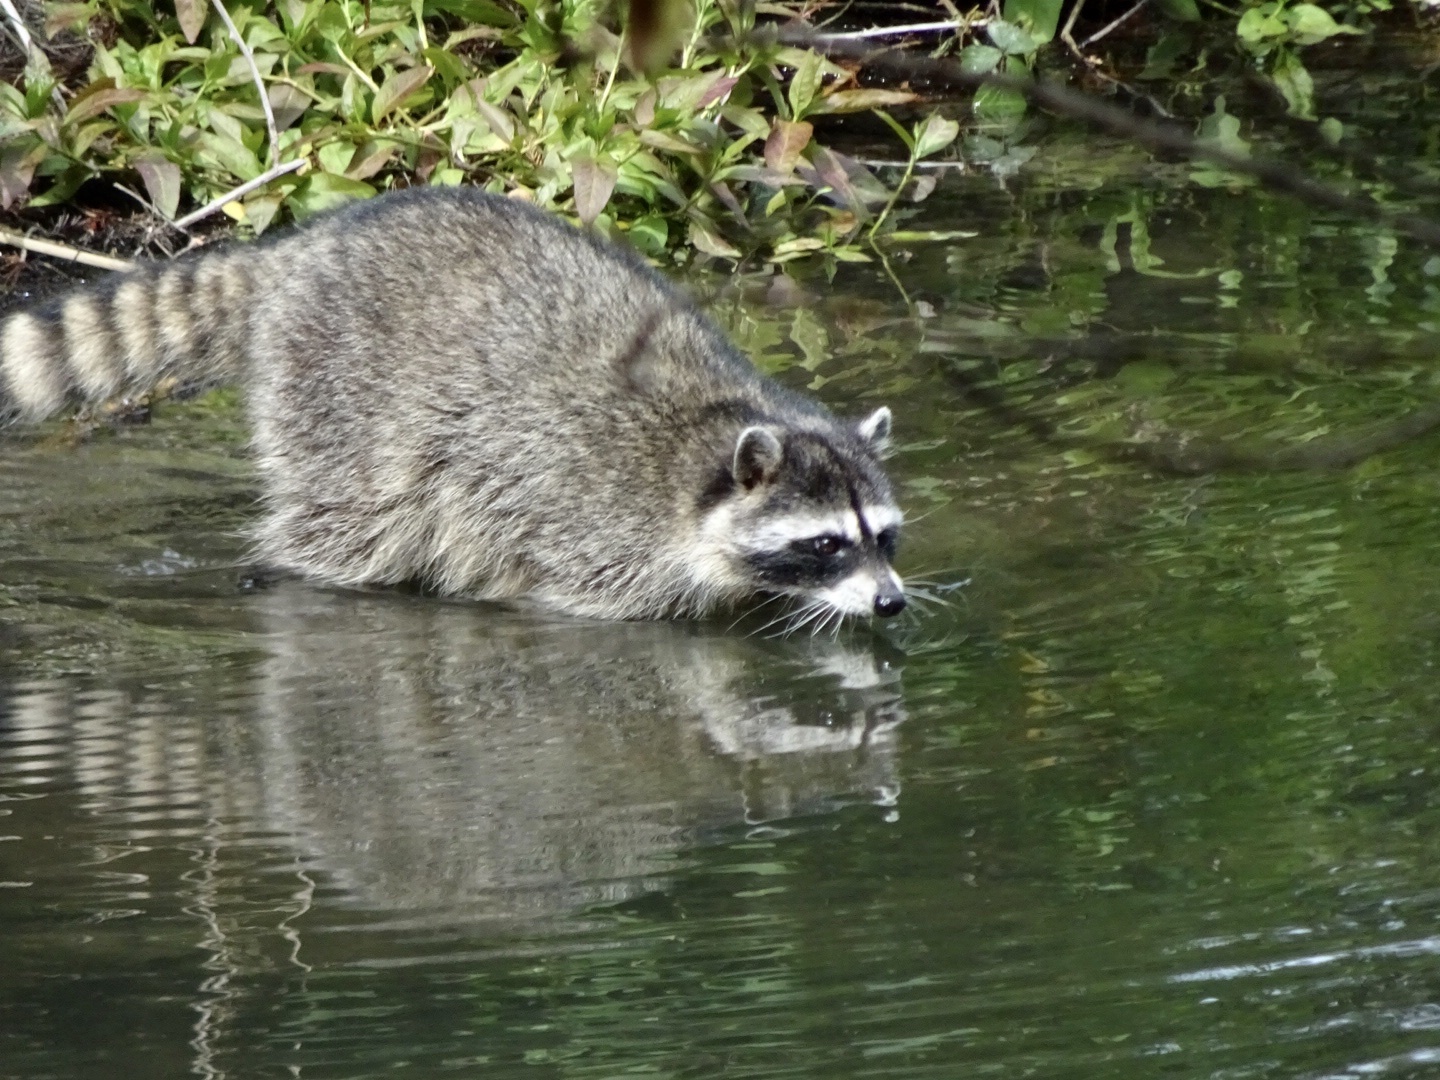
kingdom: Animalia
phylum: Chordata
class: Mammalia
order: Carnivora
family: Procyonidae
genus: Procyon
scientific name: Procyon lotor
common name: Raccoon
